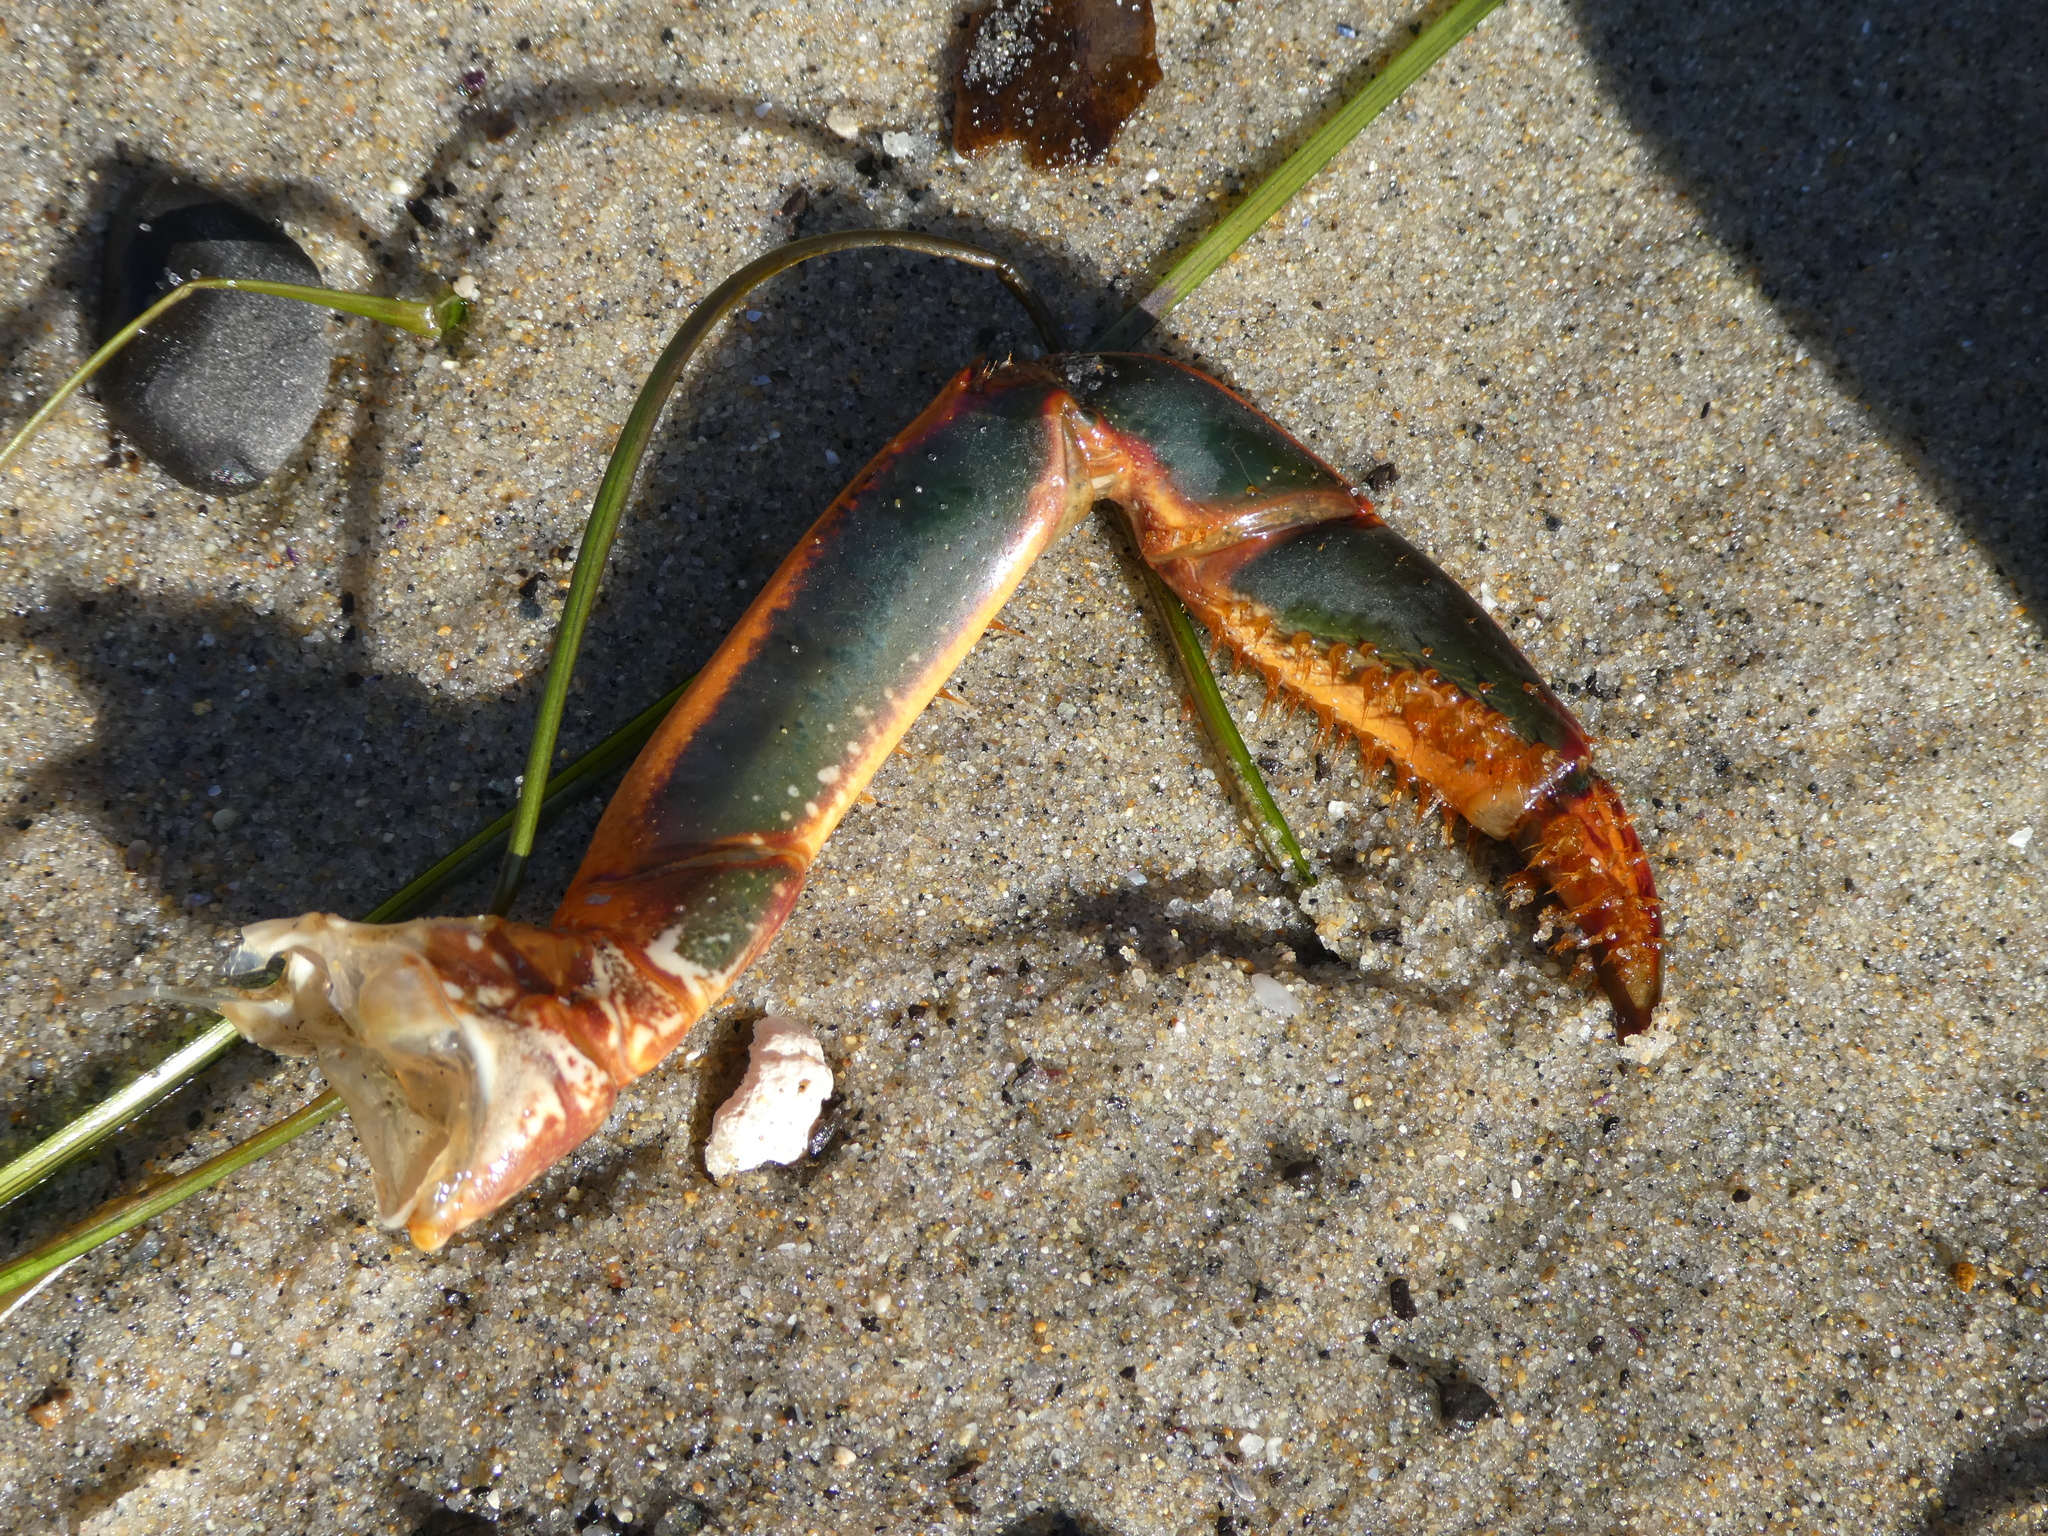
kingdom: Animalia
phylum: Arthropoda
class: Malacostraca
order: Decapoda
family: Palinuridae
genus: Panulirus
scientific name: Panulirus interruptus
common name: California spiny lobster
